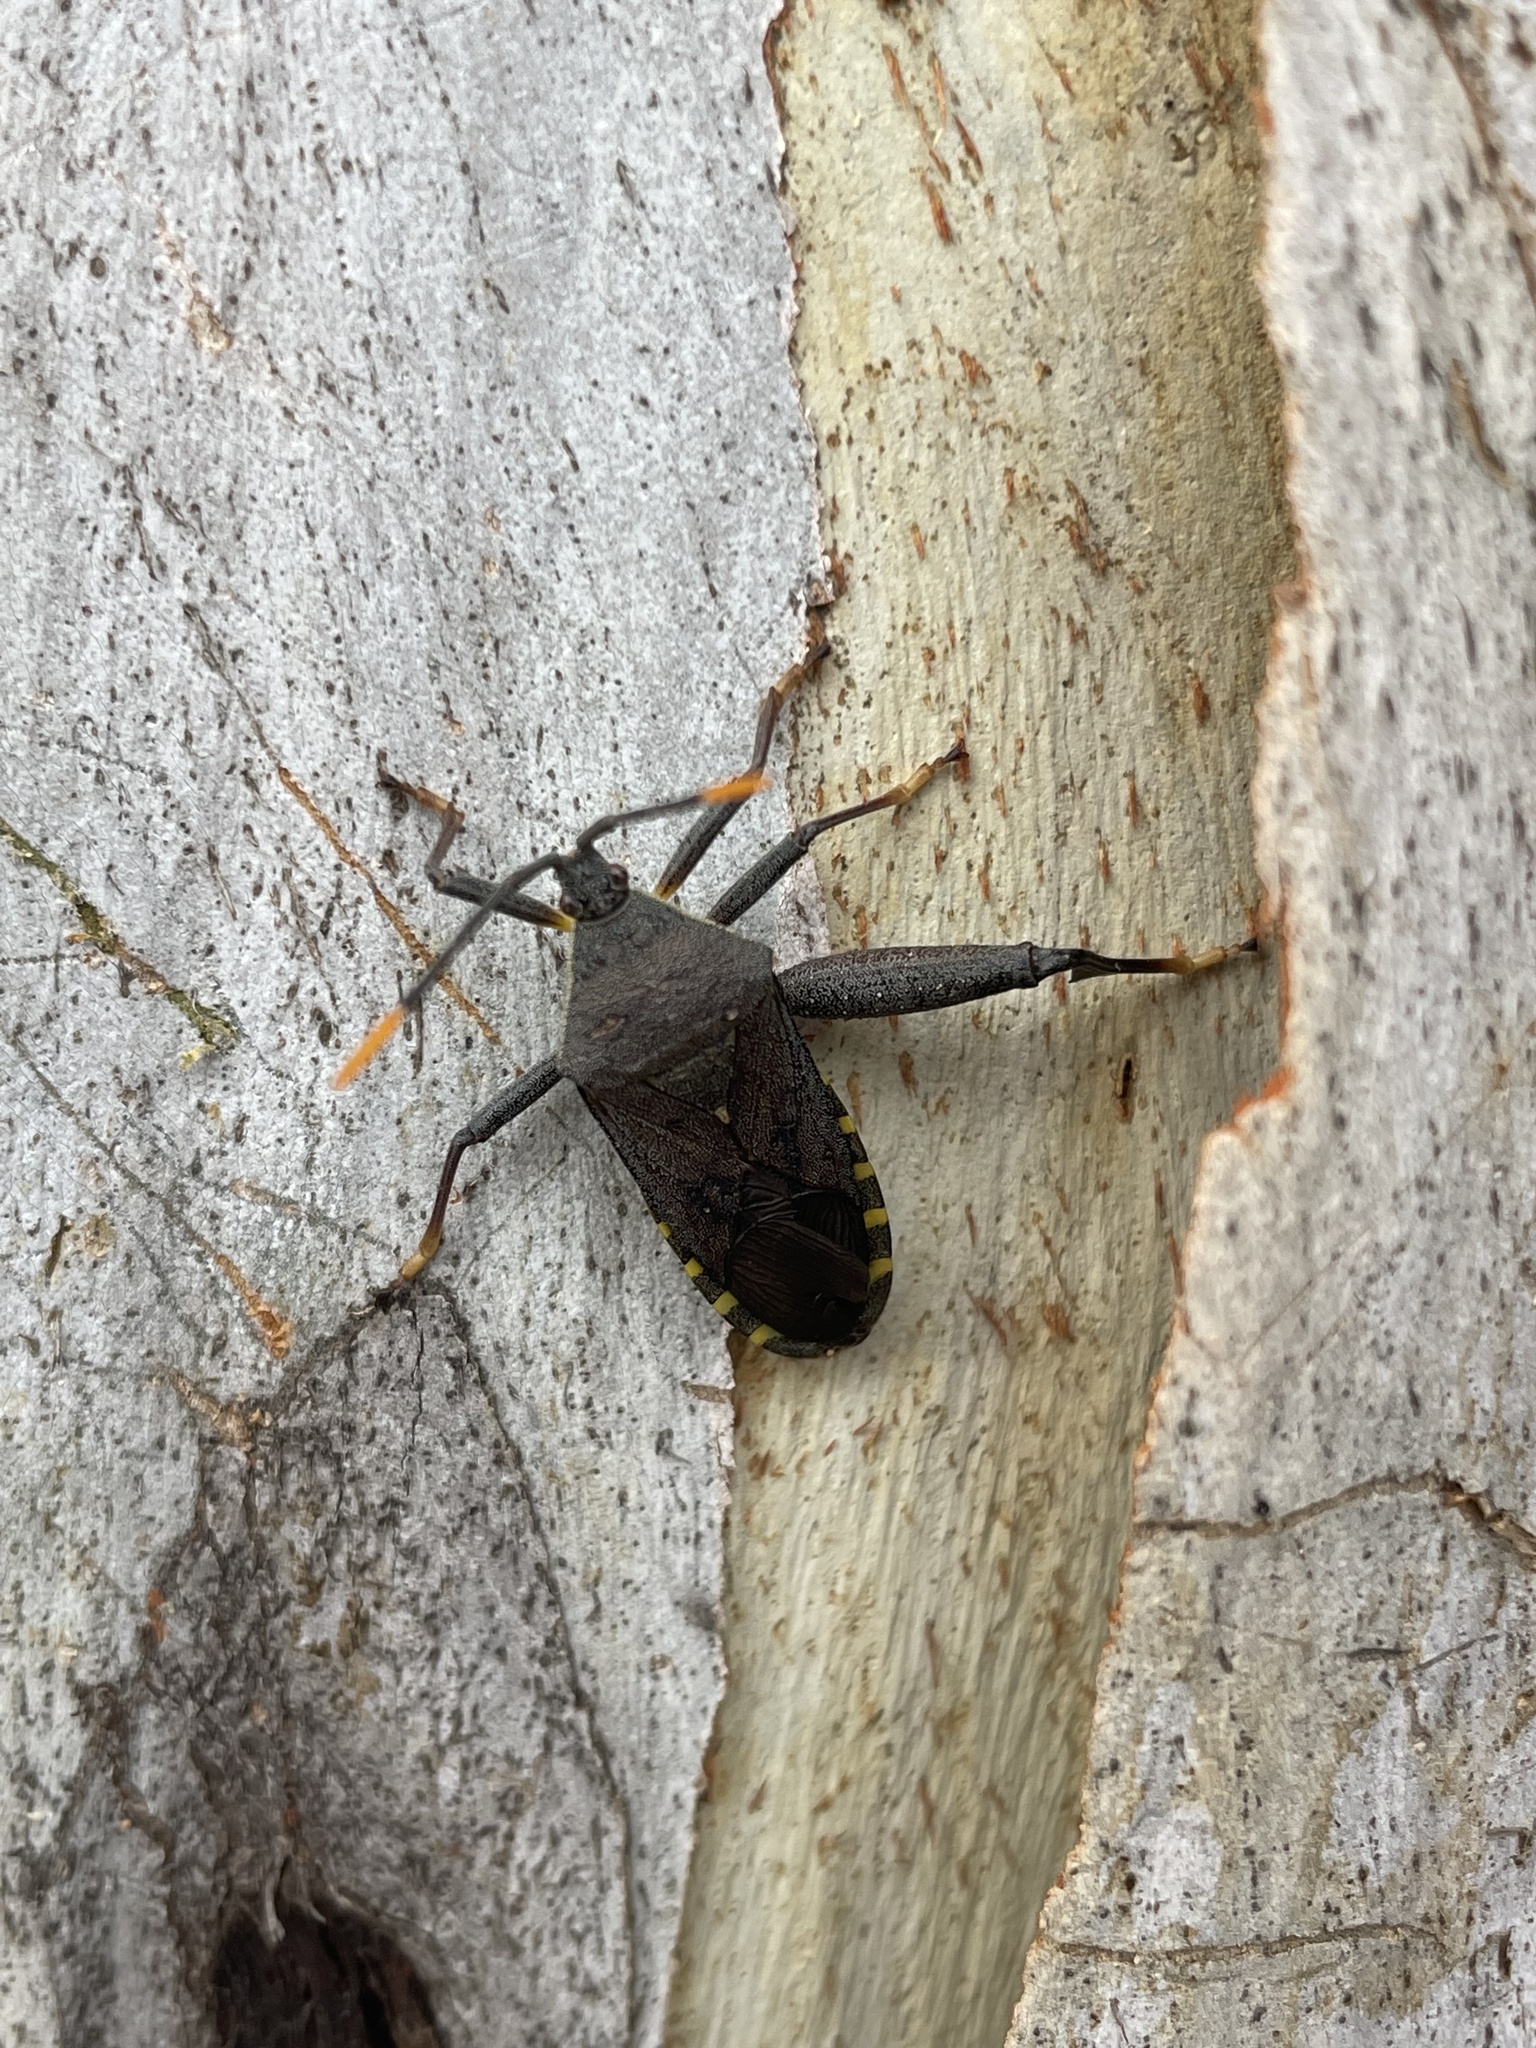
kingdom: Animalia
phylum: Arthropoda
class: Insecta
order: Hemiptera
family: Coreidae
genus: Amorbus
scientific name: Amorbus atomarius
